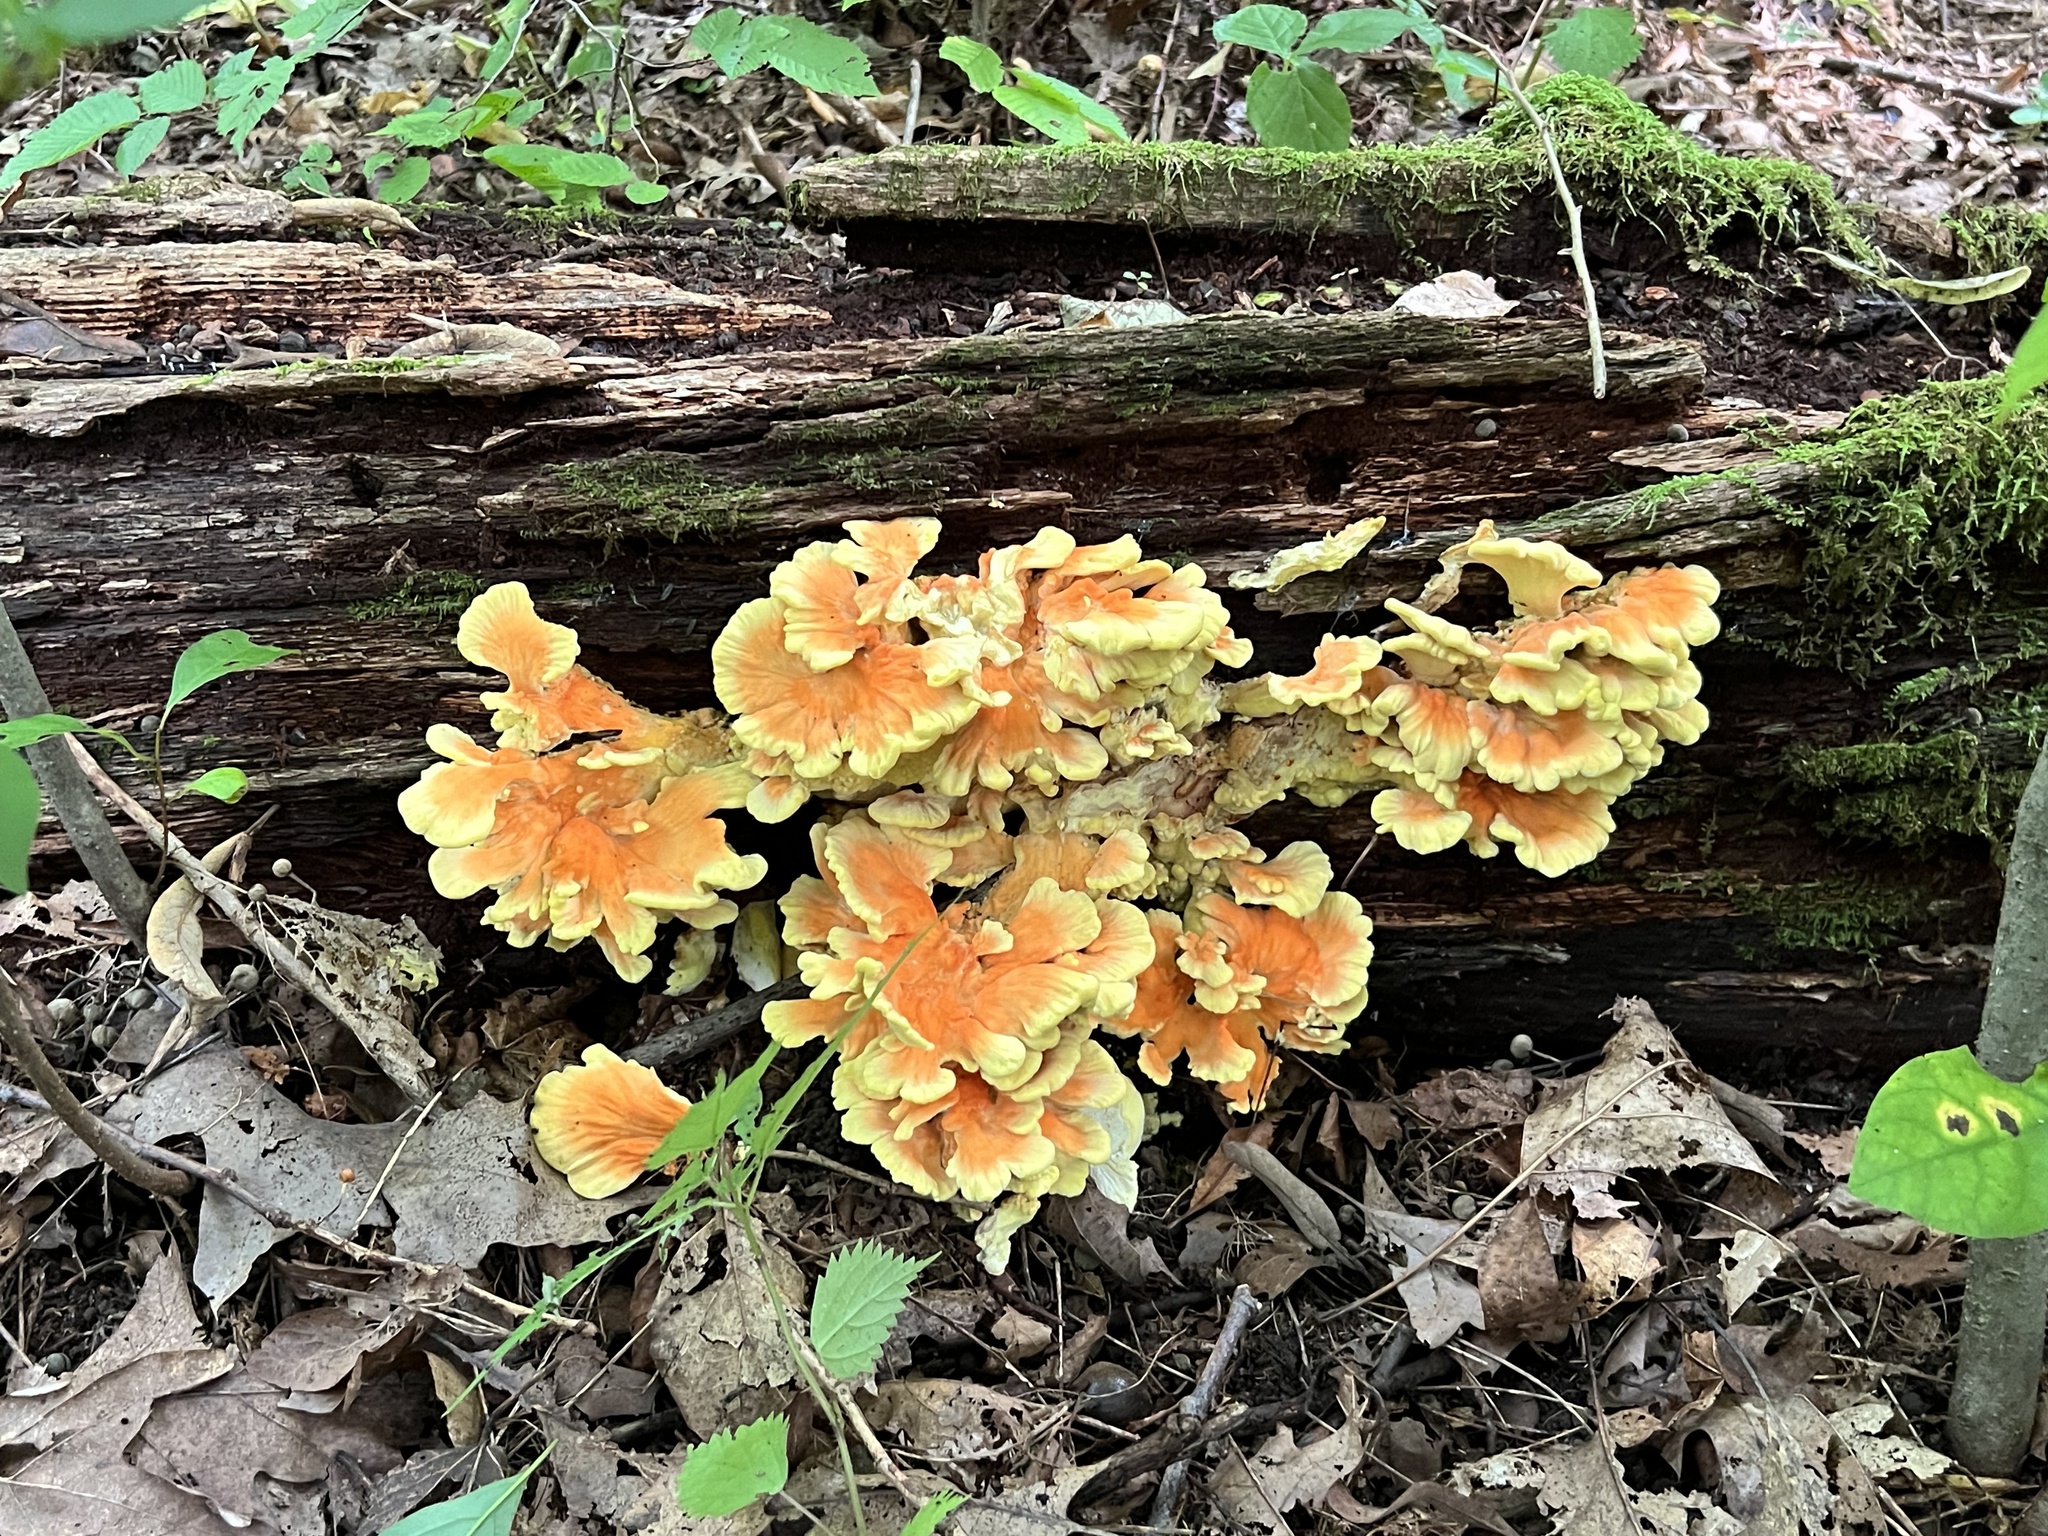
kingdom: Fungi
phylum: Basidiomycota
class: Agaricomycetes
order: Polyporales
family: Laetiporaceae
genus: Laetiporus
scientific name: Laetiporus sulphureus
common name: Chicken of the woods
